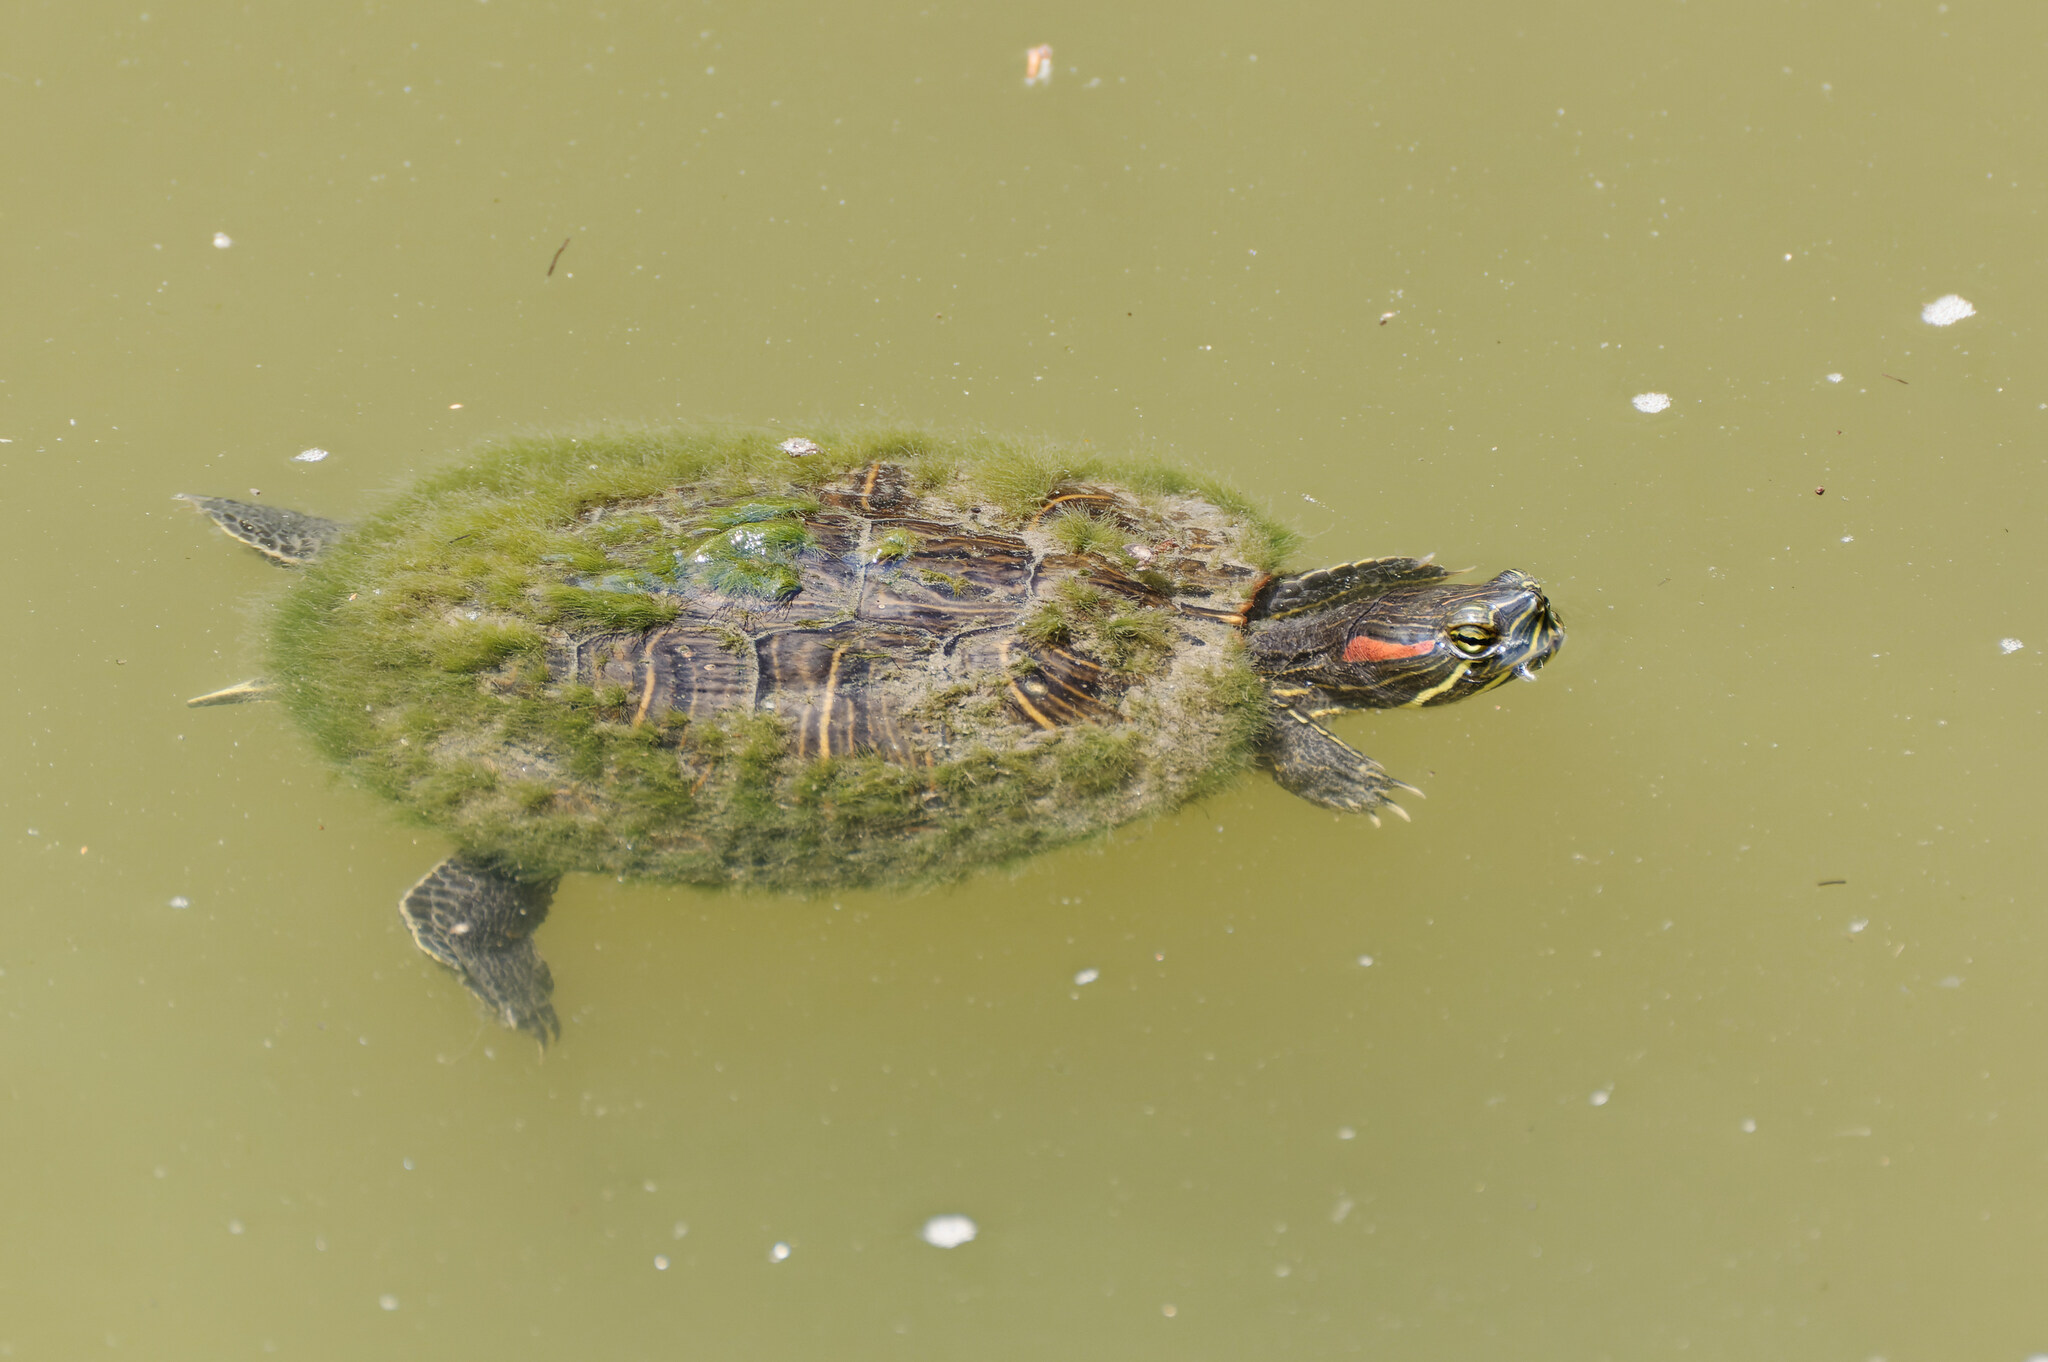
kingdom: Animalia
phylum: Chordata
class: Testudines
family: Emydidae
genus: Trachemys
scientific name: Trachemys scripta
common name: Slider
